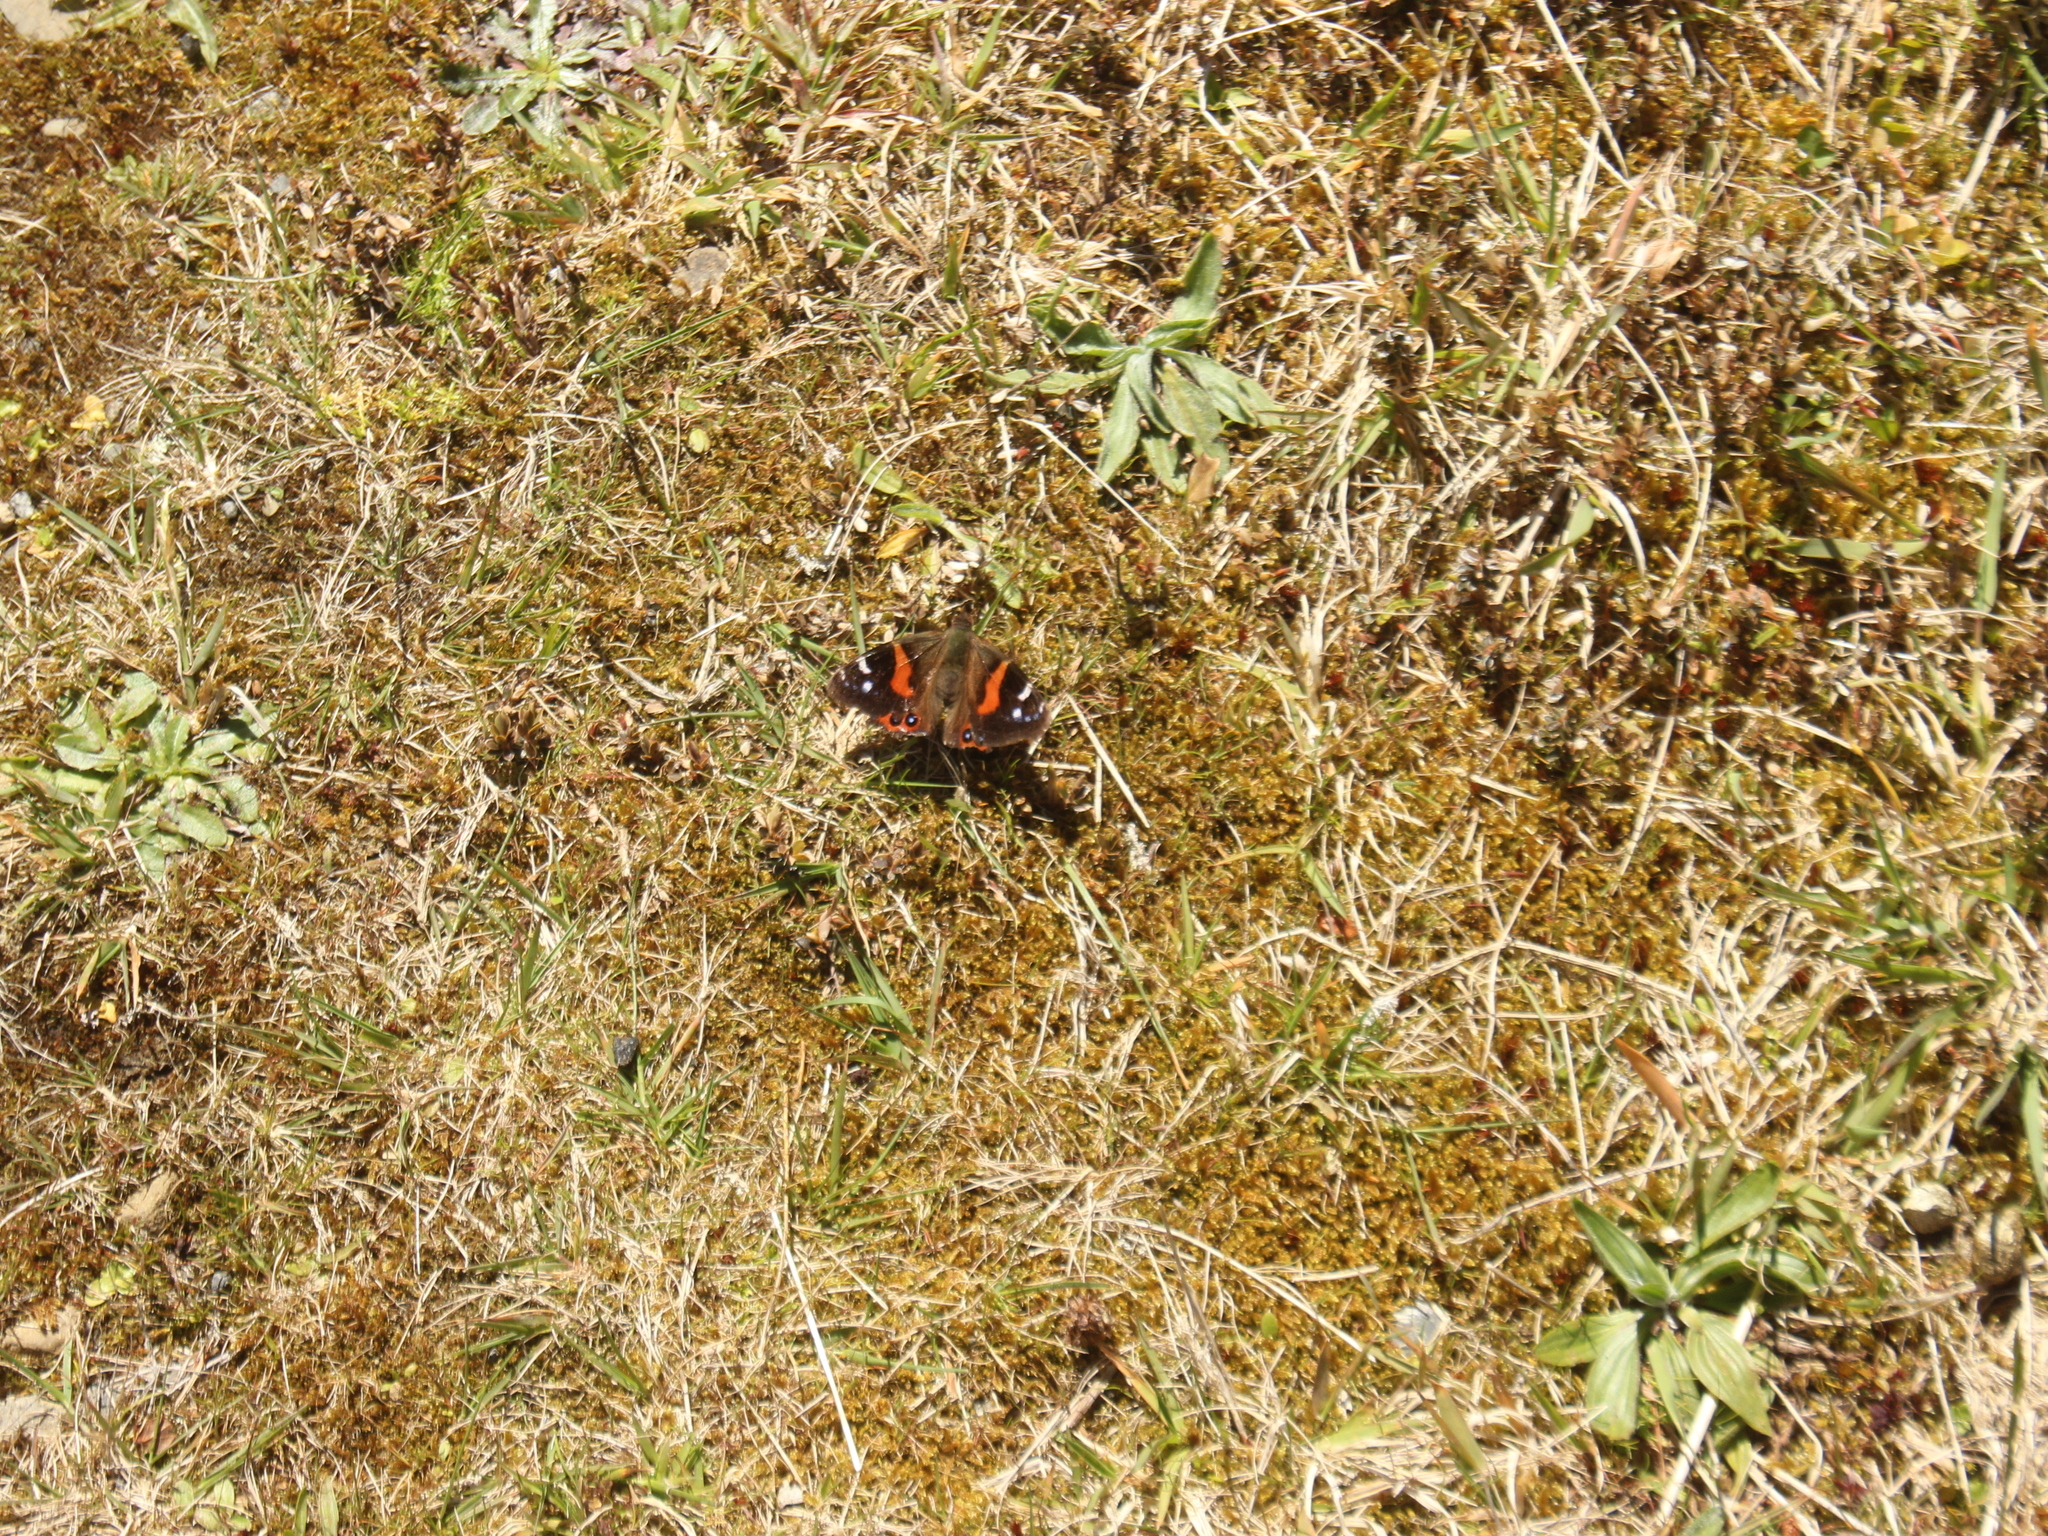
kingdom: Animalia
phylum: Arthropoda
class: Insecta
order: Lepidoptera
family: Nymphalidae
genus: Vanessa
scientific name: Vanessa gonerilla
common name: New zealand red admiral
